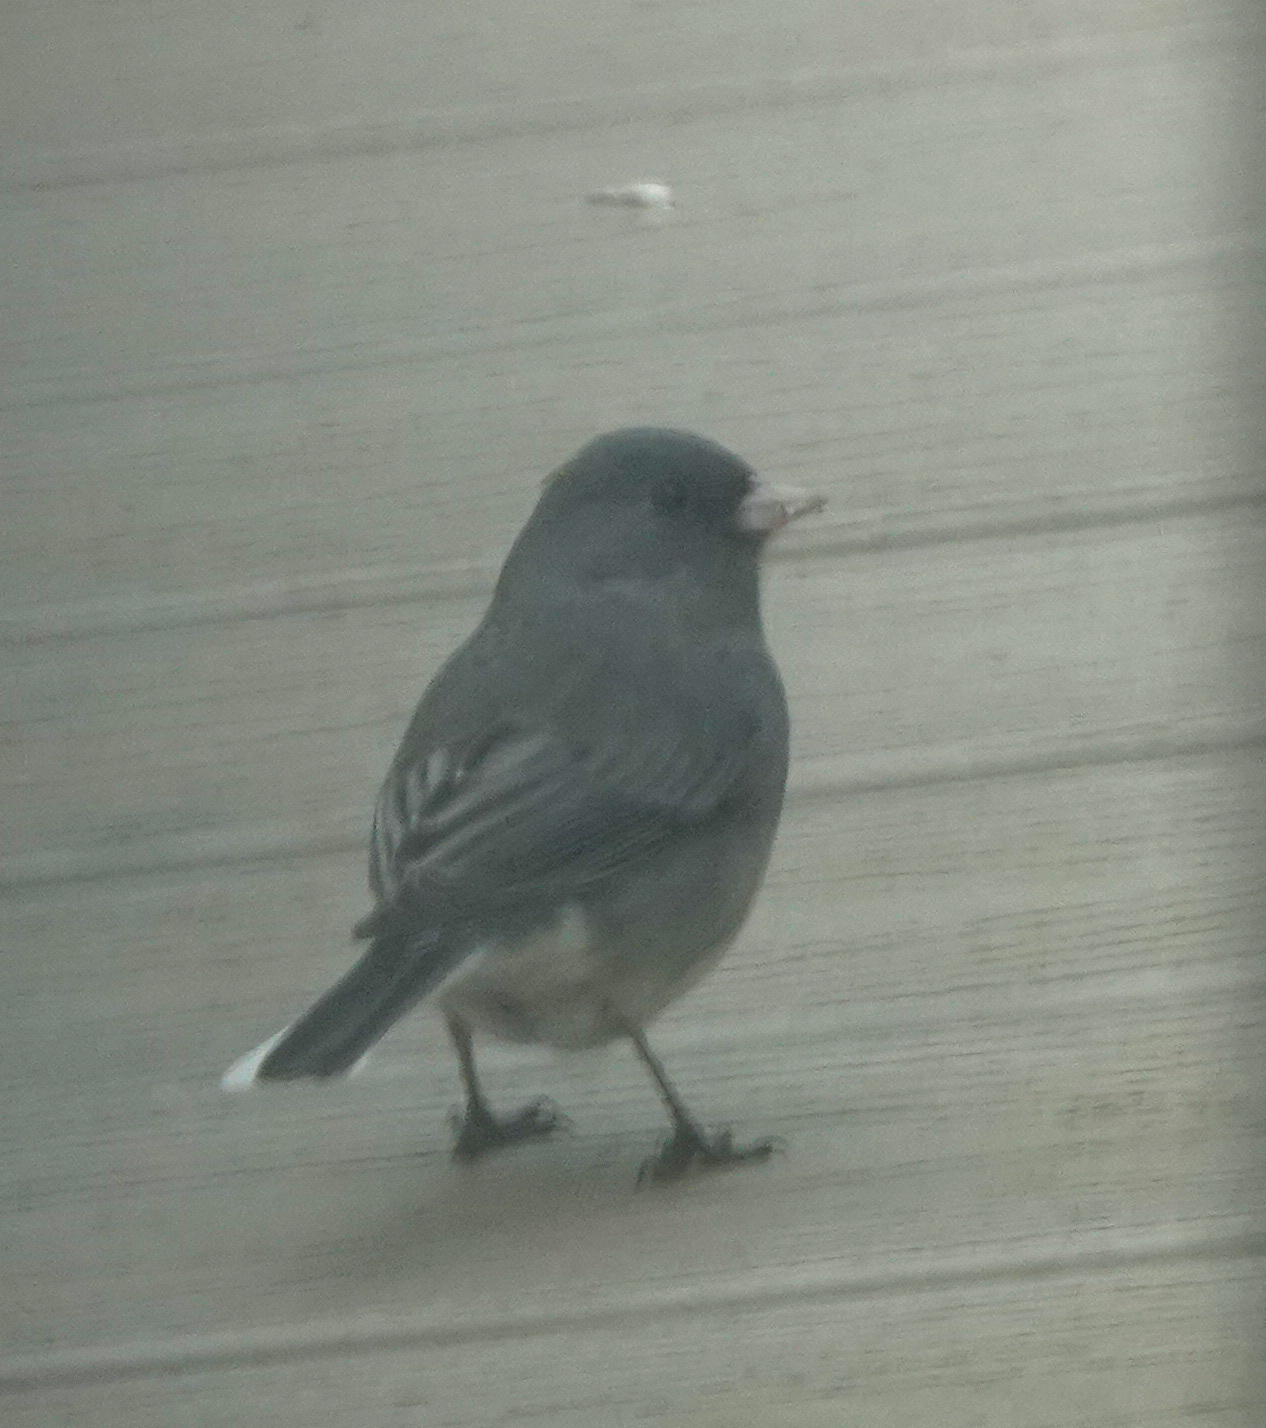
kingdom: Animalia
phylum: Chordata
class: Aves
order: Passeriformes
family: Passerellidae
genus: Junco
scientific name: Junco hyemalis
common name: Dark-eyed junco
